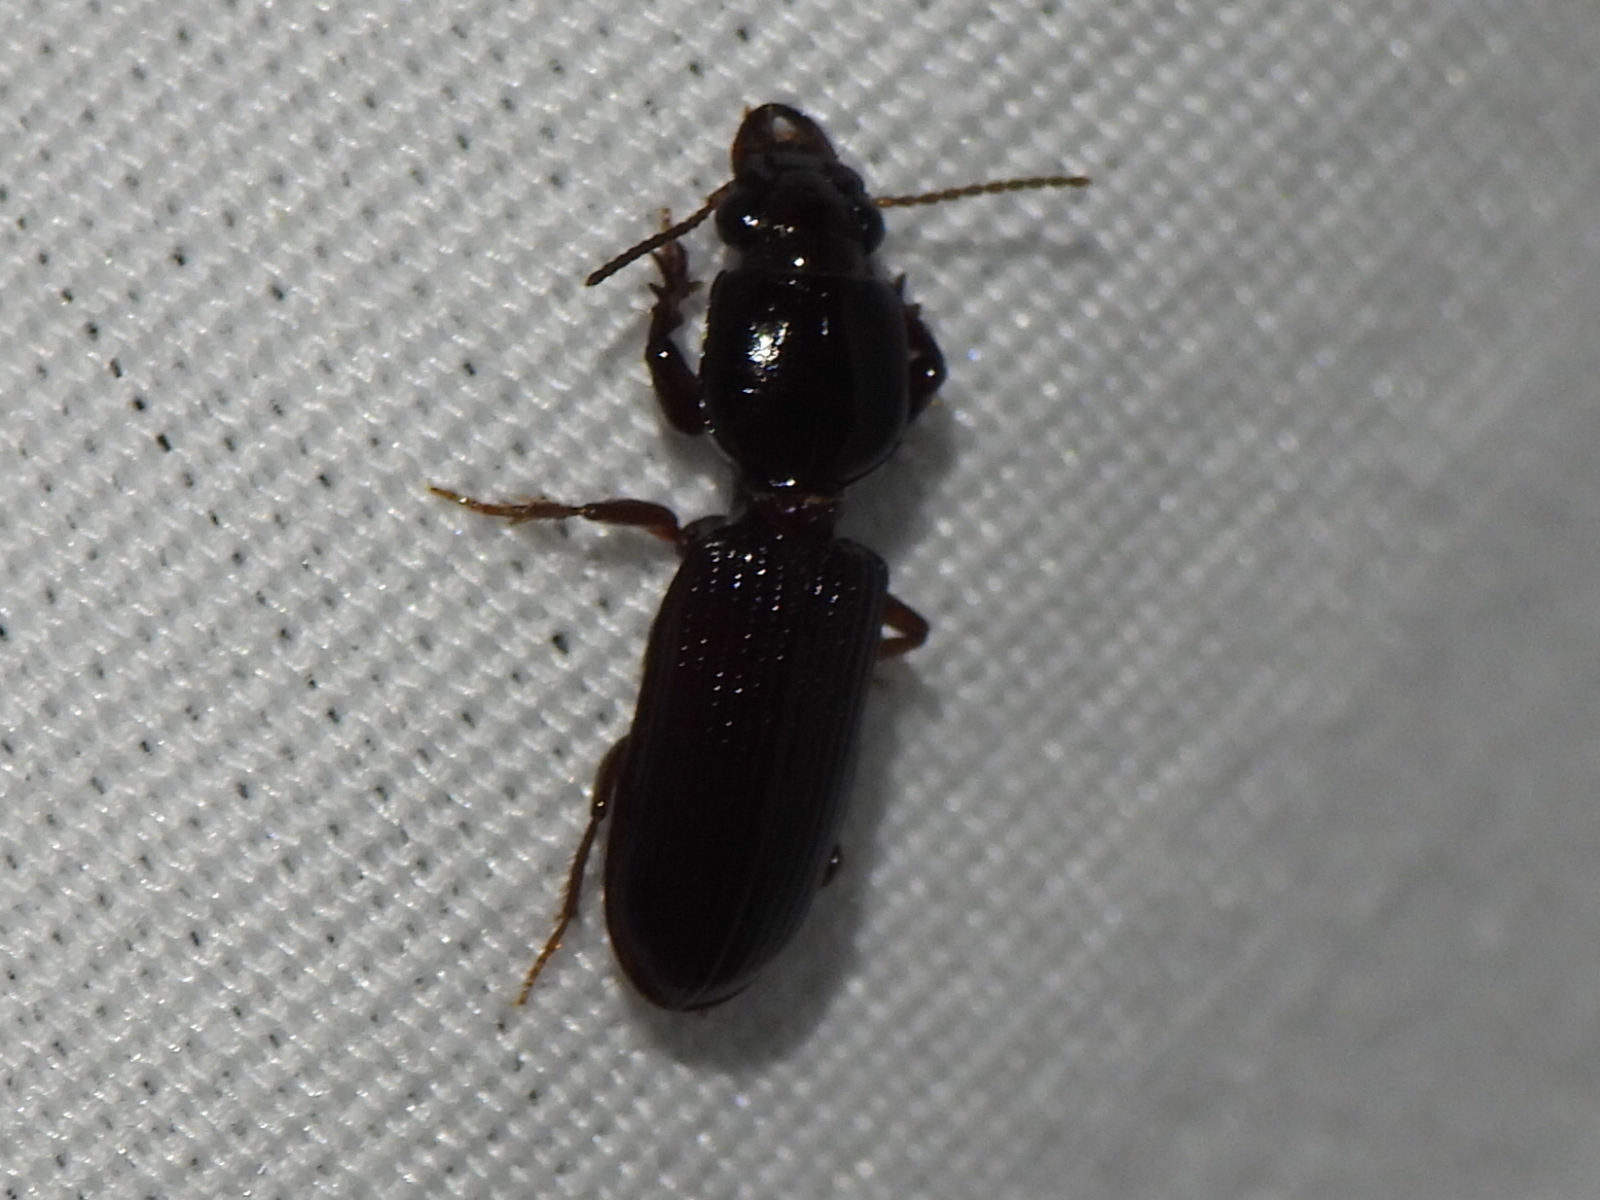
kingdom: Animalia
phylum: Arthropoda
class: Insecta
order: Coleoptera
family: Carabidae
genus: Semiclivina
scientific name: Semiclivina dentipes
